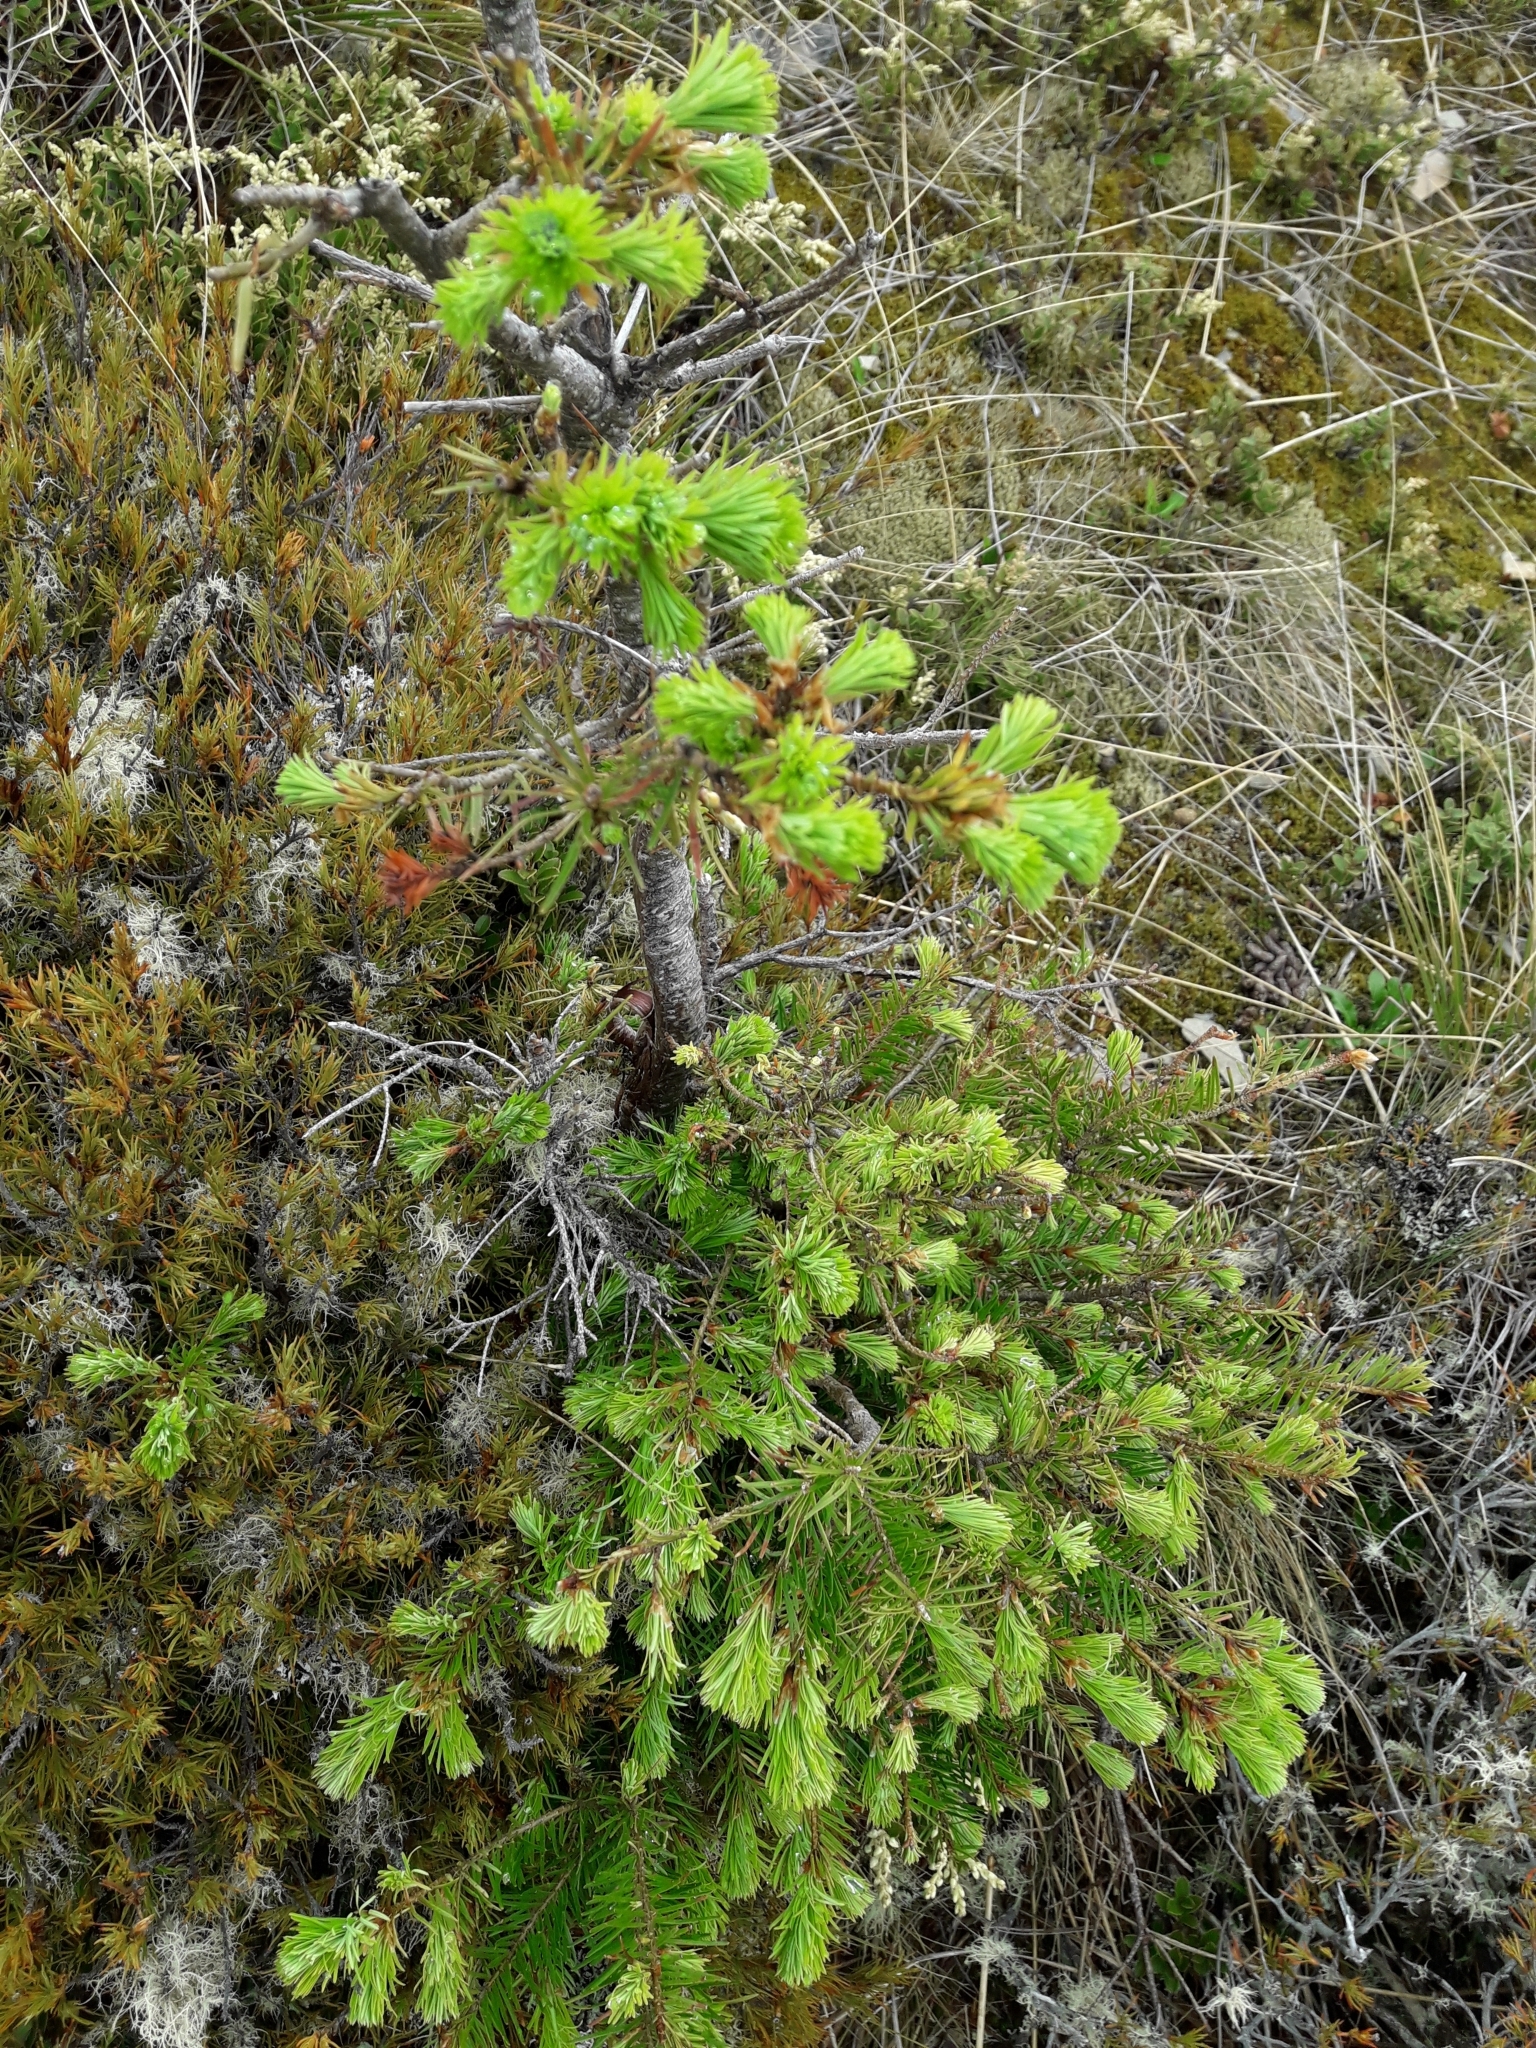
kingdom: Plantae
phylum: Tracheophyta
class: Pinopsida
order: Pinales
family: Pinaceae
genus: Pseudotsuga
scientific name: Pseudotsuga menziesii
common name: Douglas fir
